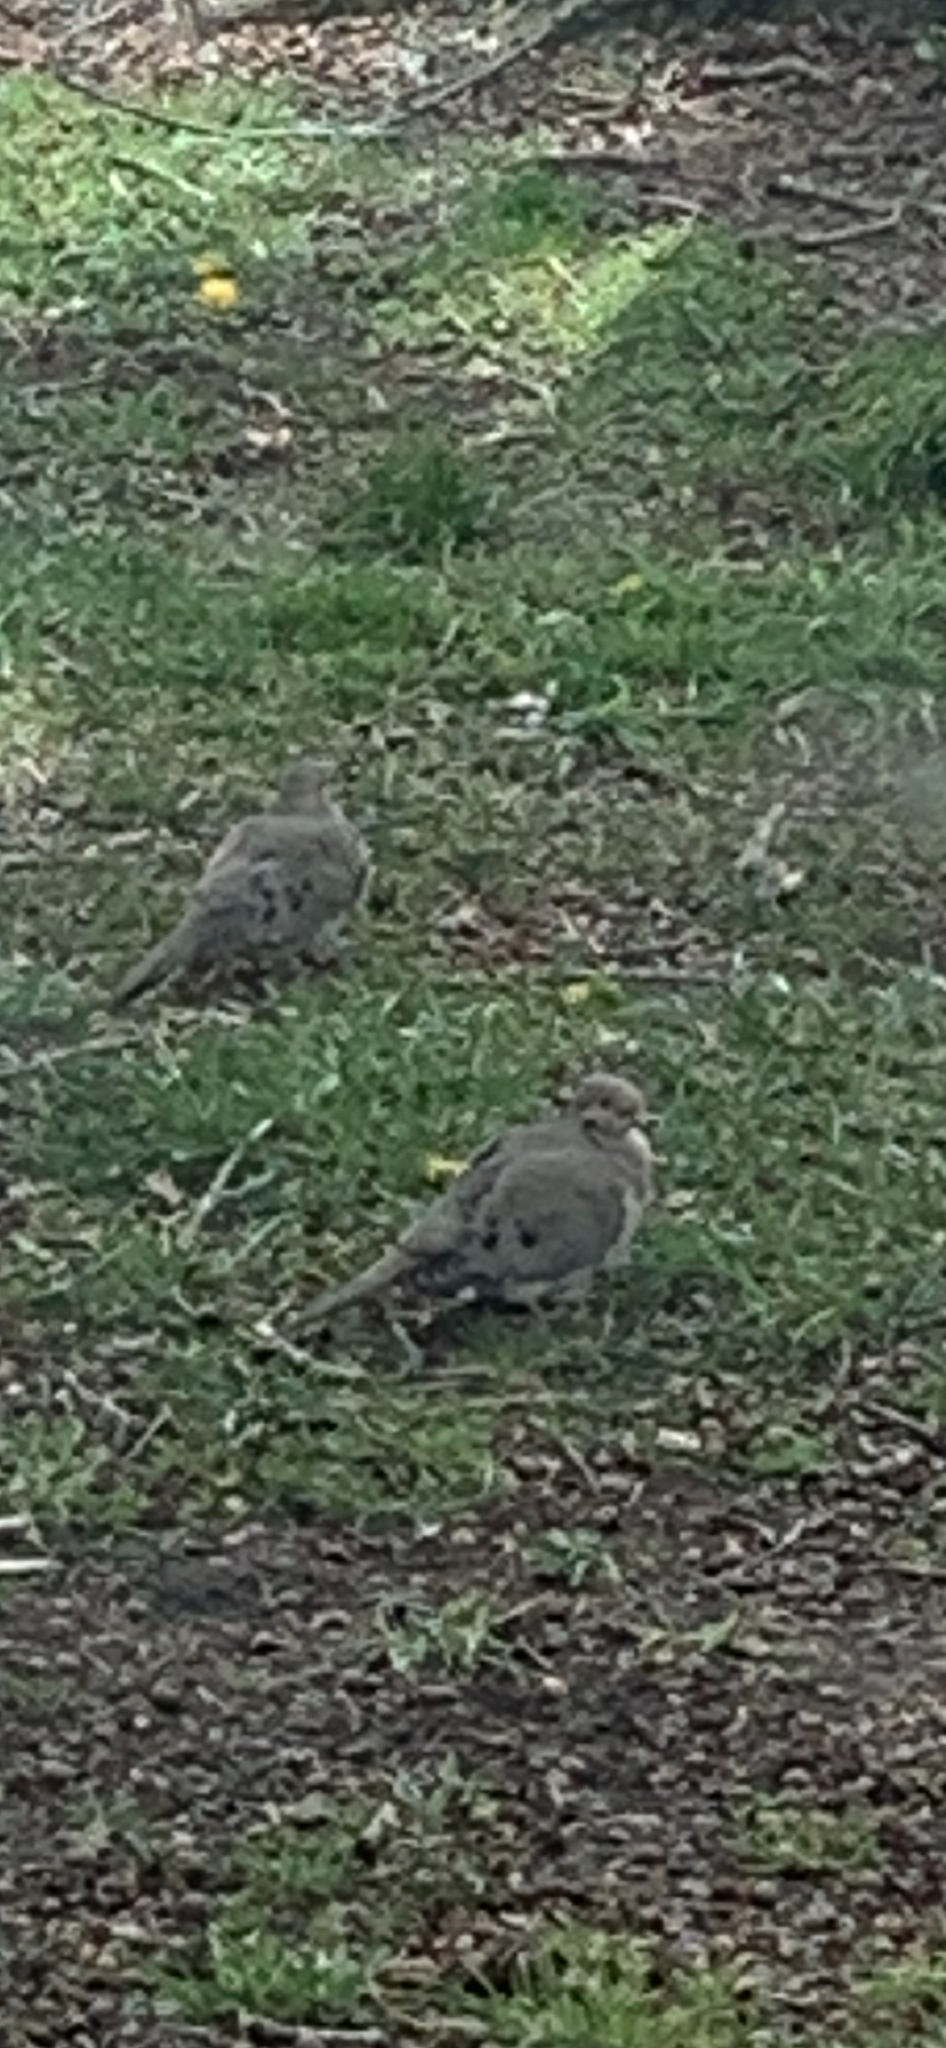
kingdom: Animalia
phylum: Chordata
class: Aves
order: Columbiformes
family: Columbidae
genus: Zenaida
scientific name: Zenaida macroura
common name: Mourning dove
